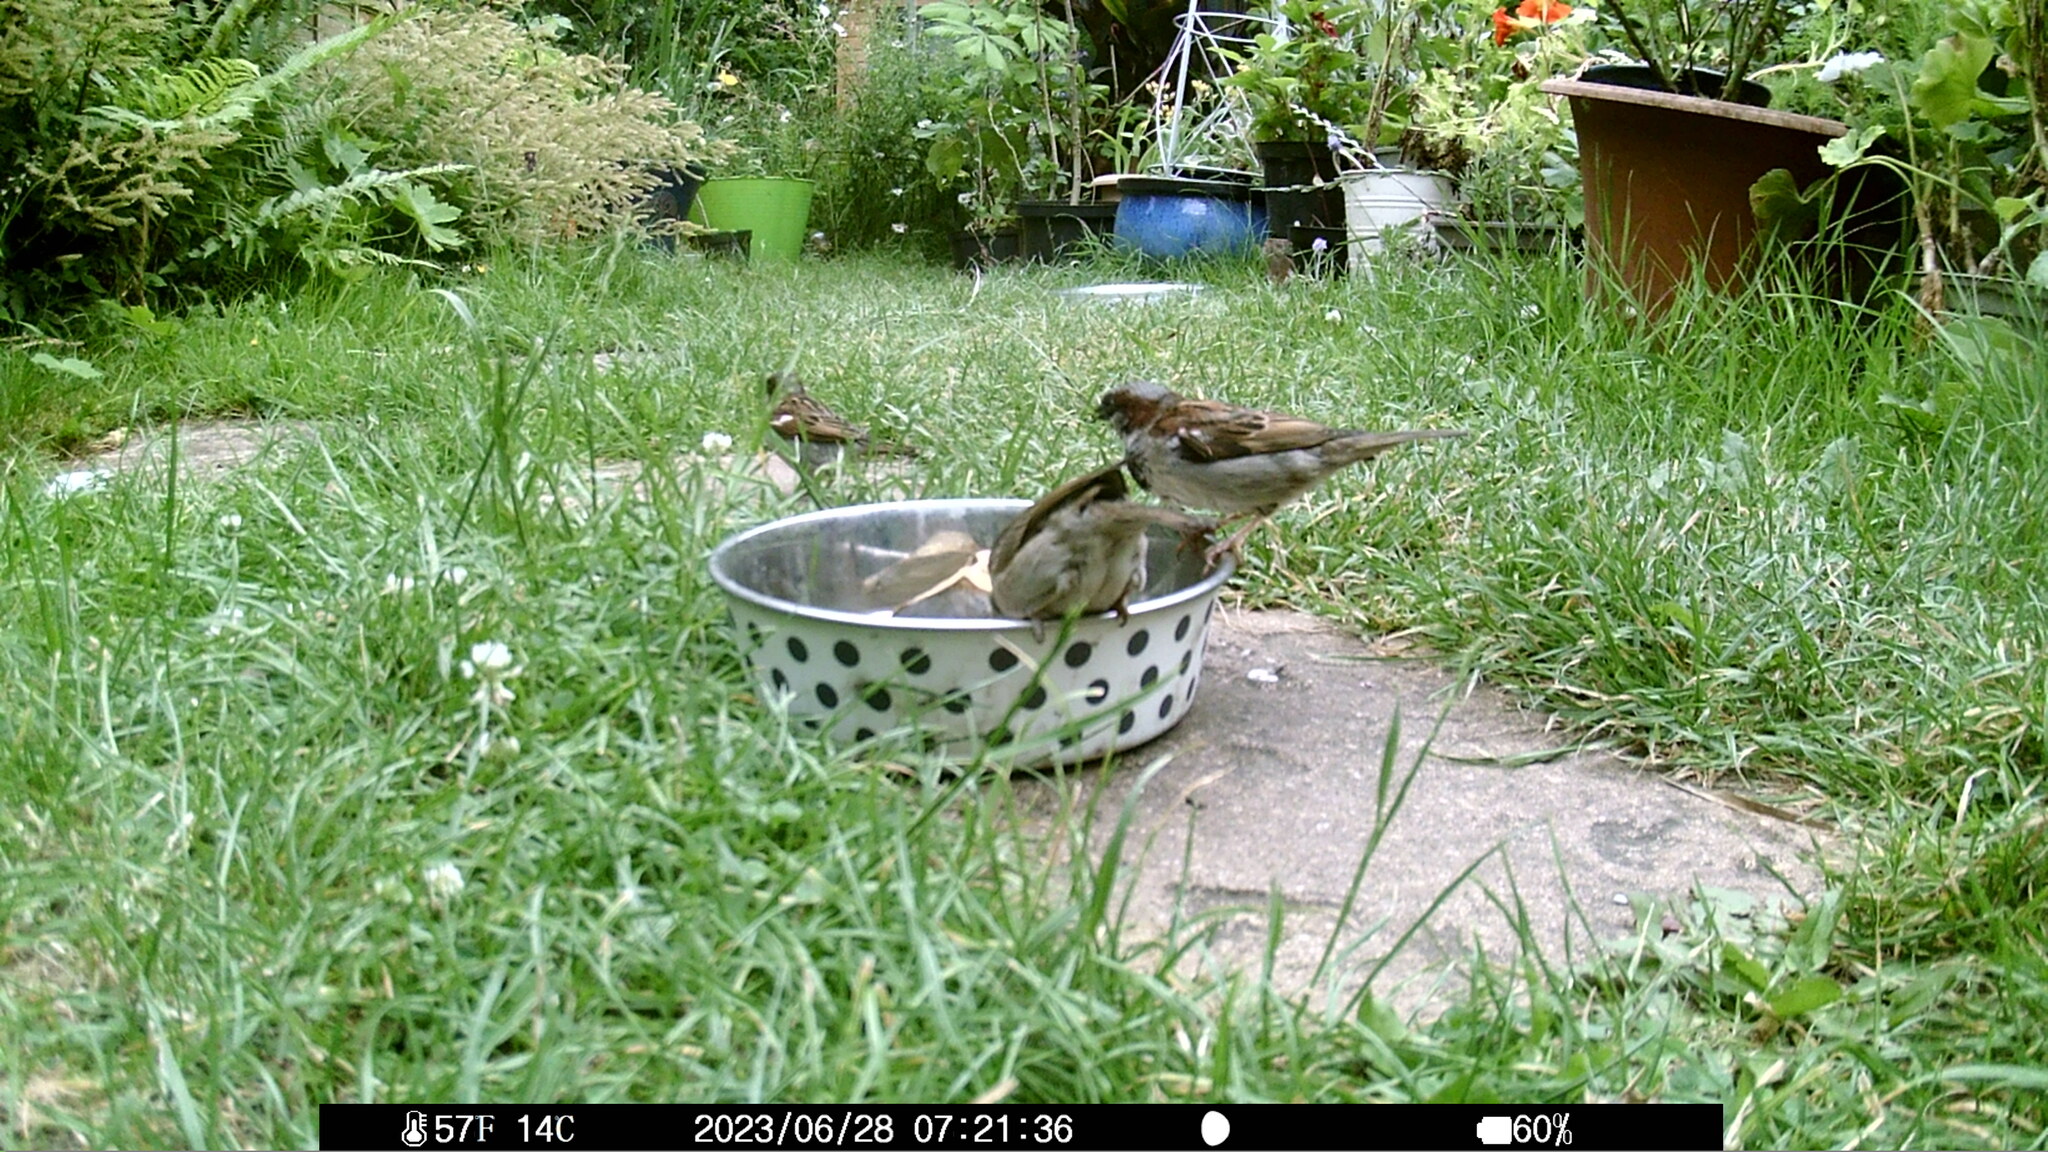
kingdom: Animalia
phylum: Chordata
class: Aves
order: Passeriformes
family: Passeridae
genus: Passer
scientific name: Passer domesticus
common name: House sparrow
